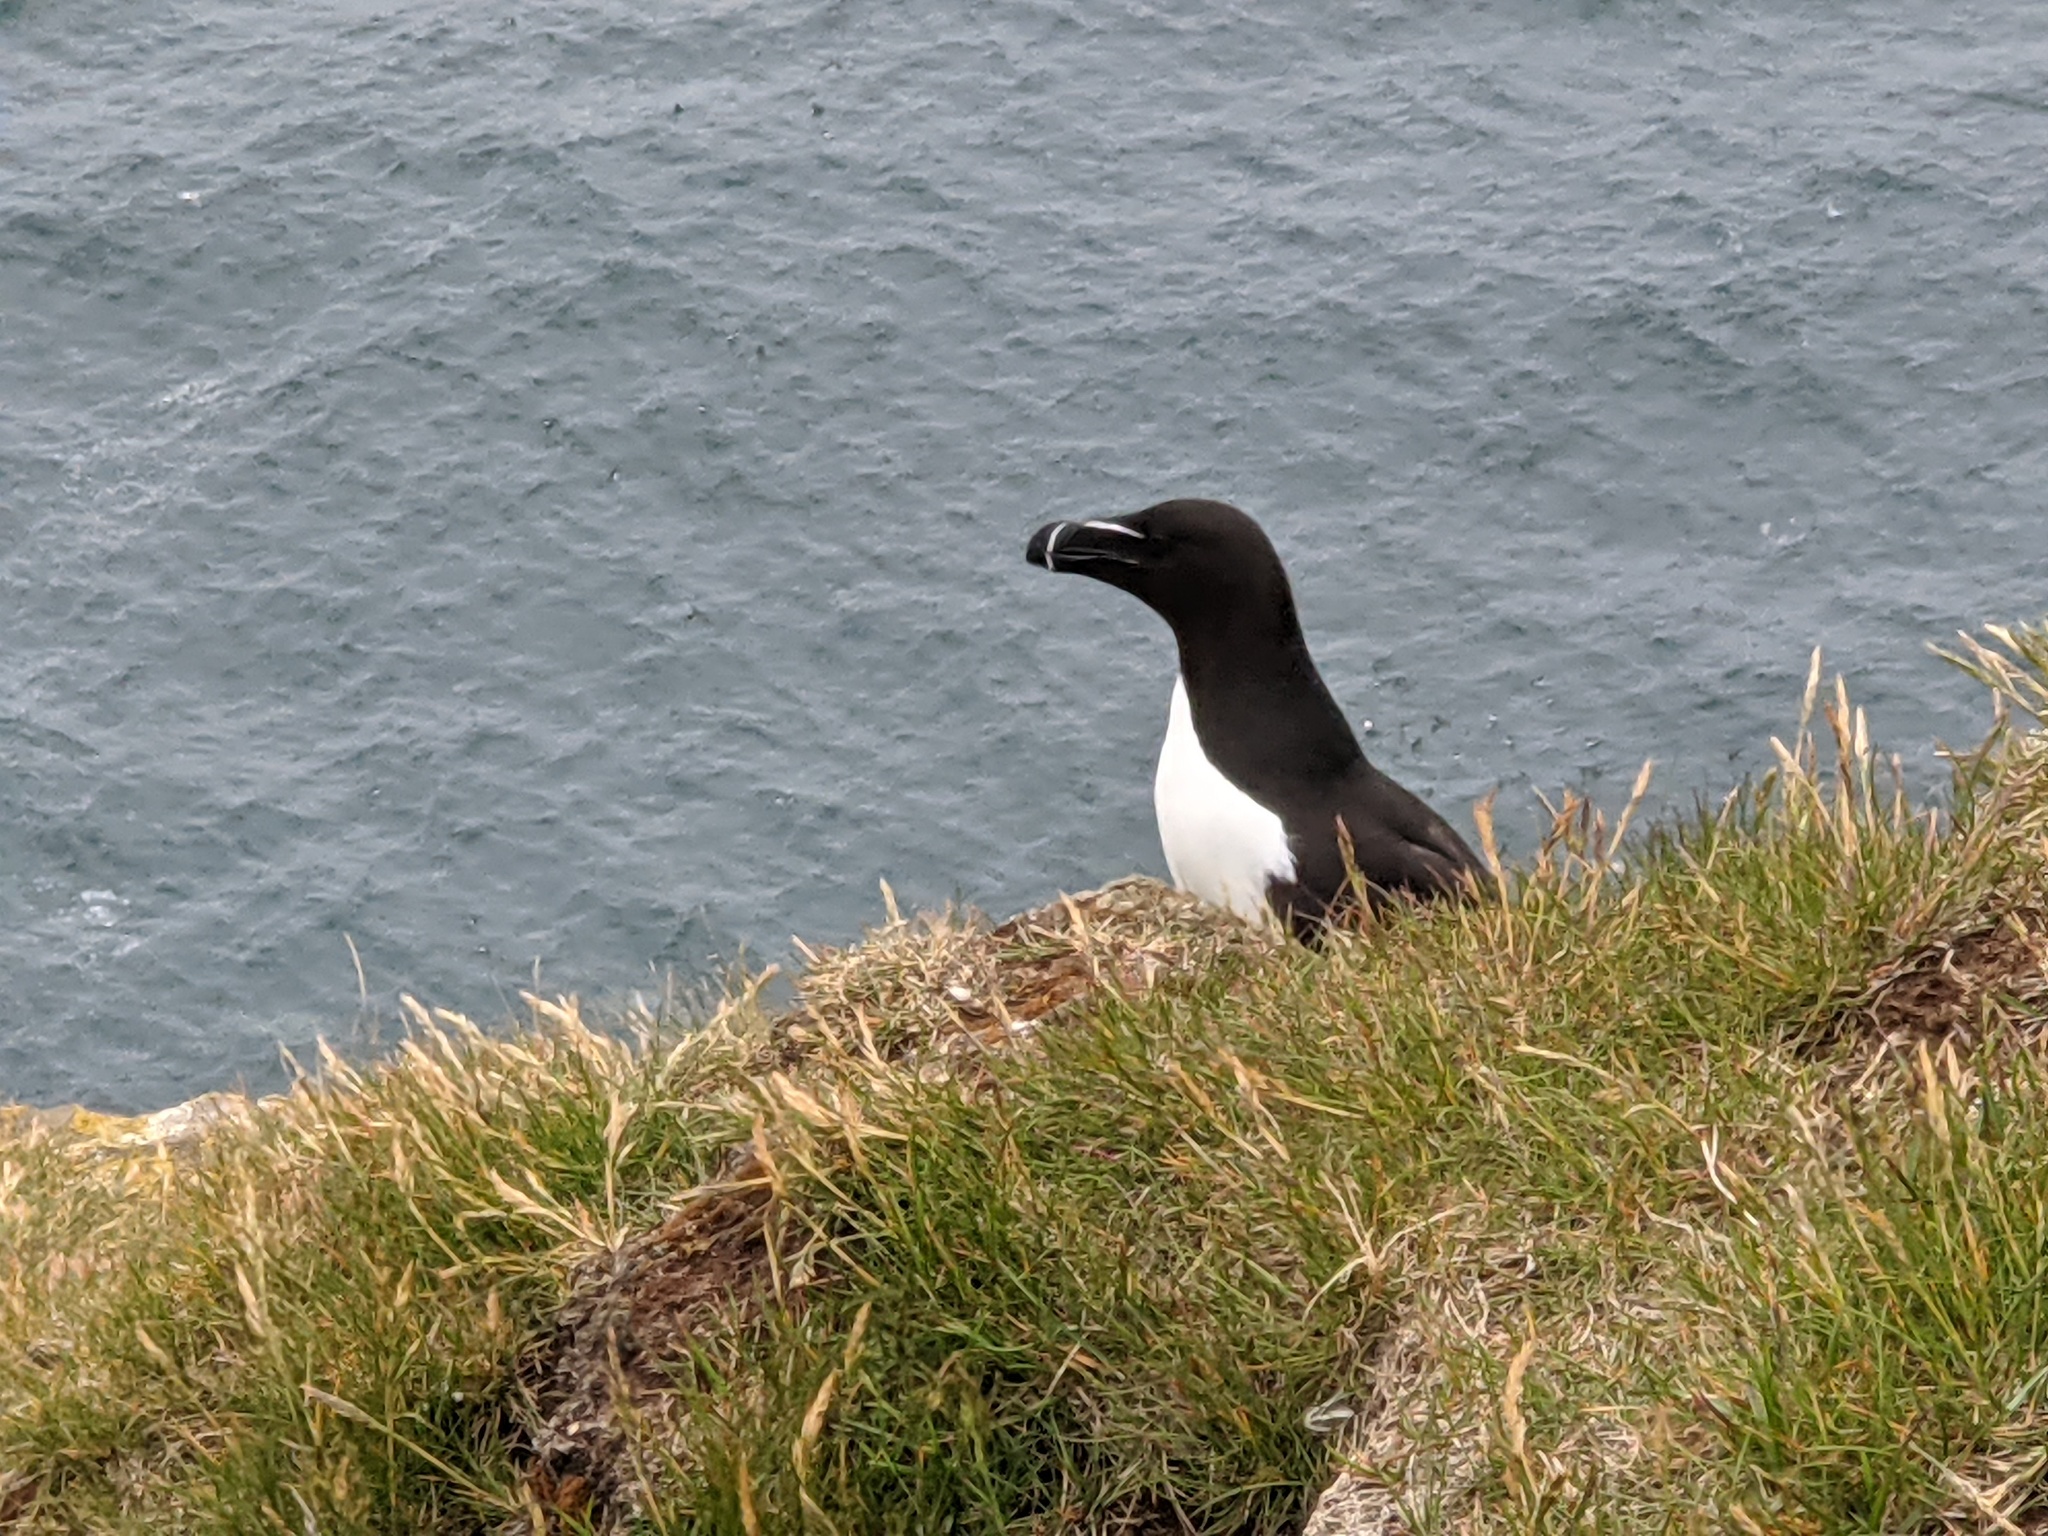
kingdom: Animalia
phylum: Chordata
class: Aves
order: Charadriiformes
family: Alcidae
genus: Alca
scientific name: Alca torda
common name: Razorbill
